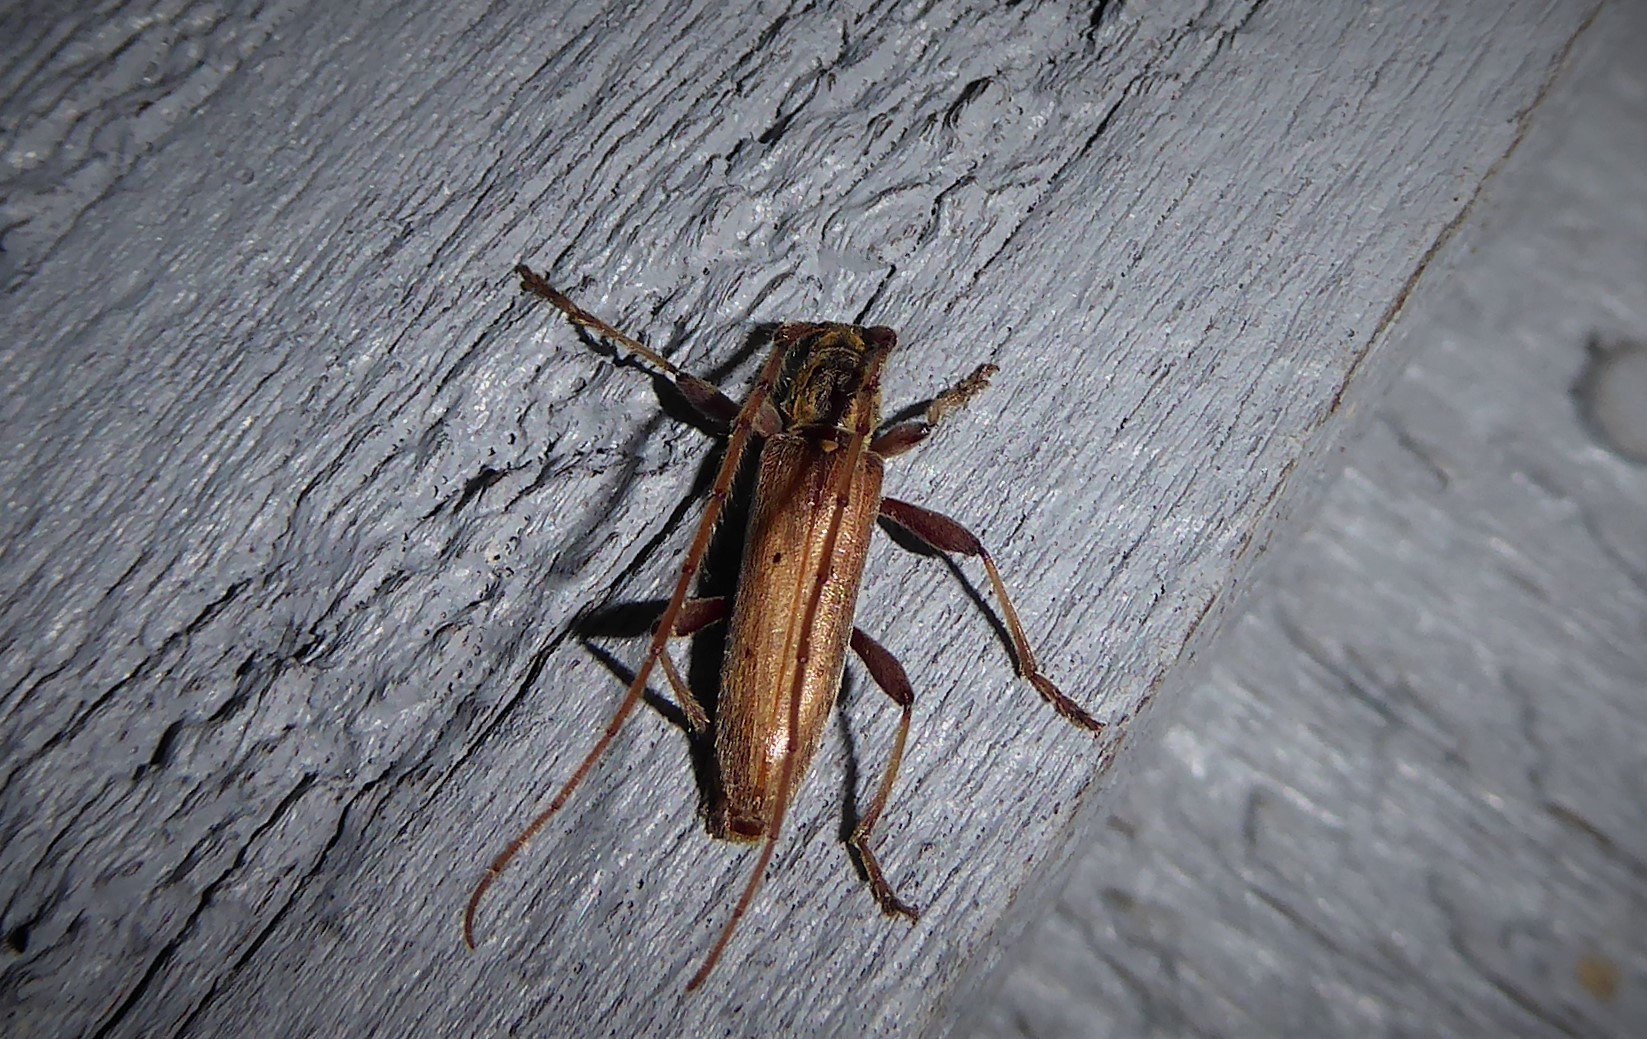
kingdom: Animalia
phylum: Arthropoda
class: Insecta
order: Coleoptera
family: Cerambycidae
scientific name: Cerambycidae
